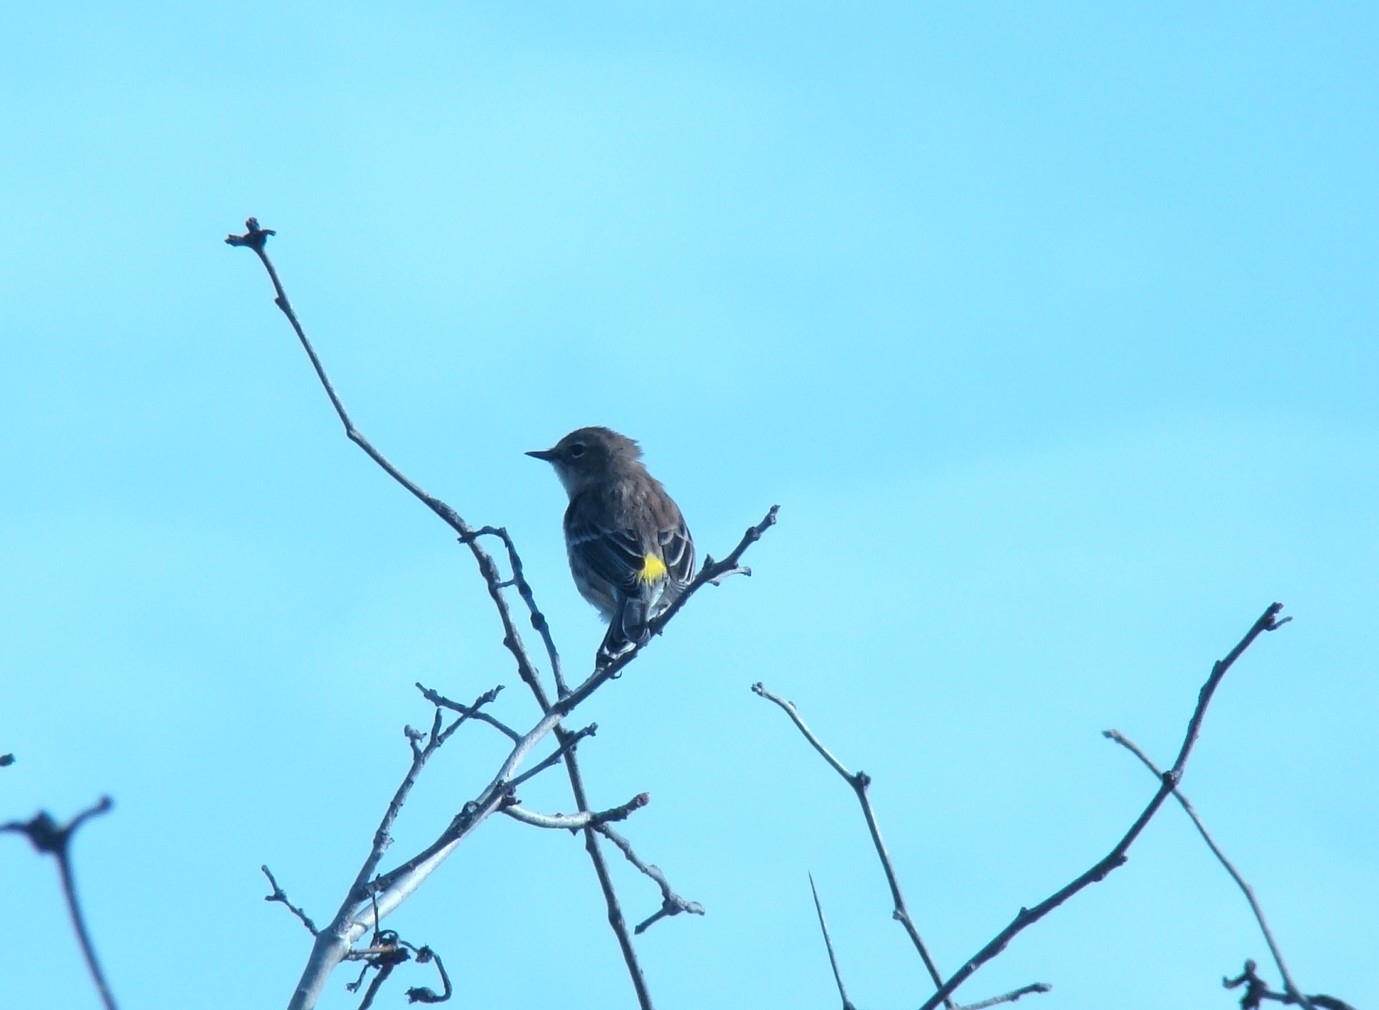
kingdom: Animalia
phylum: Chordata
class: Aves
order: Passeriformes
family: Parulidae
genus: Setophaga
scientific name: Setophaga coronata
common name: Myrtle warbler
